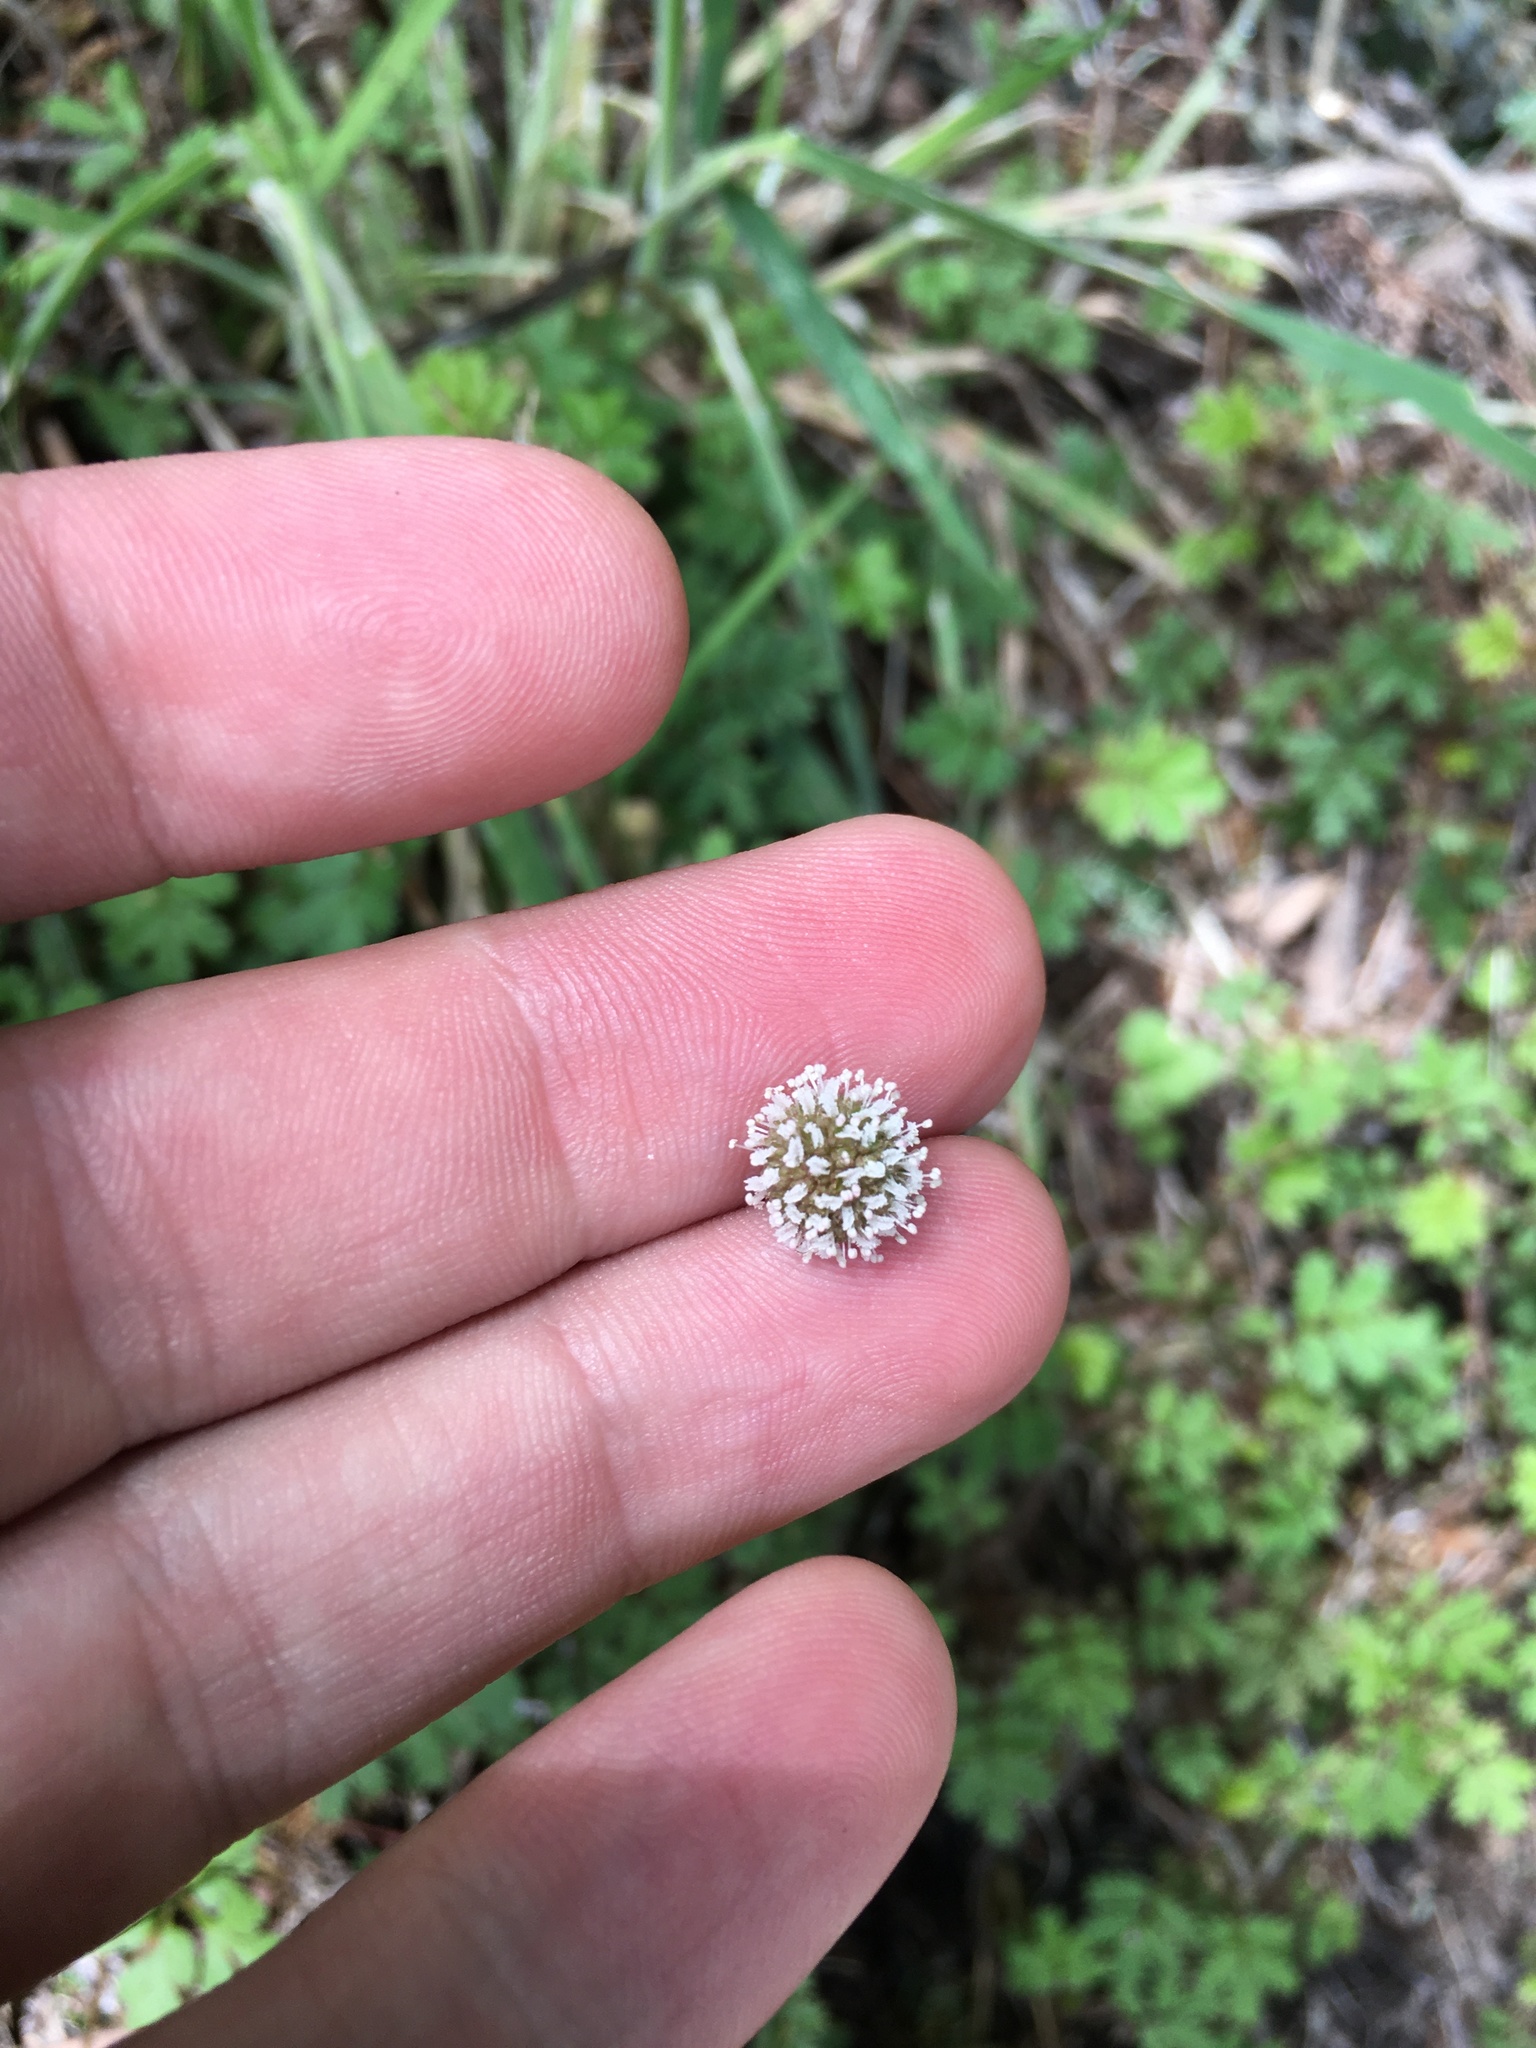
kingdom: Plantae
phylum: Tracheophyta
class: Magnoliopsida
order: Rosales
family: Rosaceae
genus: Acaena
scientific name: Acaena anserinifolia
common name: Bronze pirri-pirri-bur
